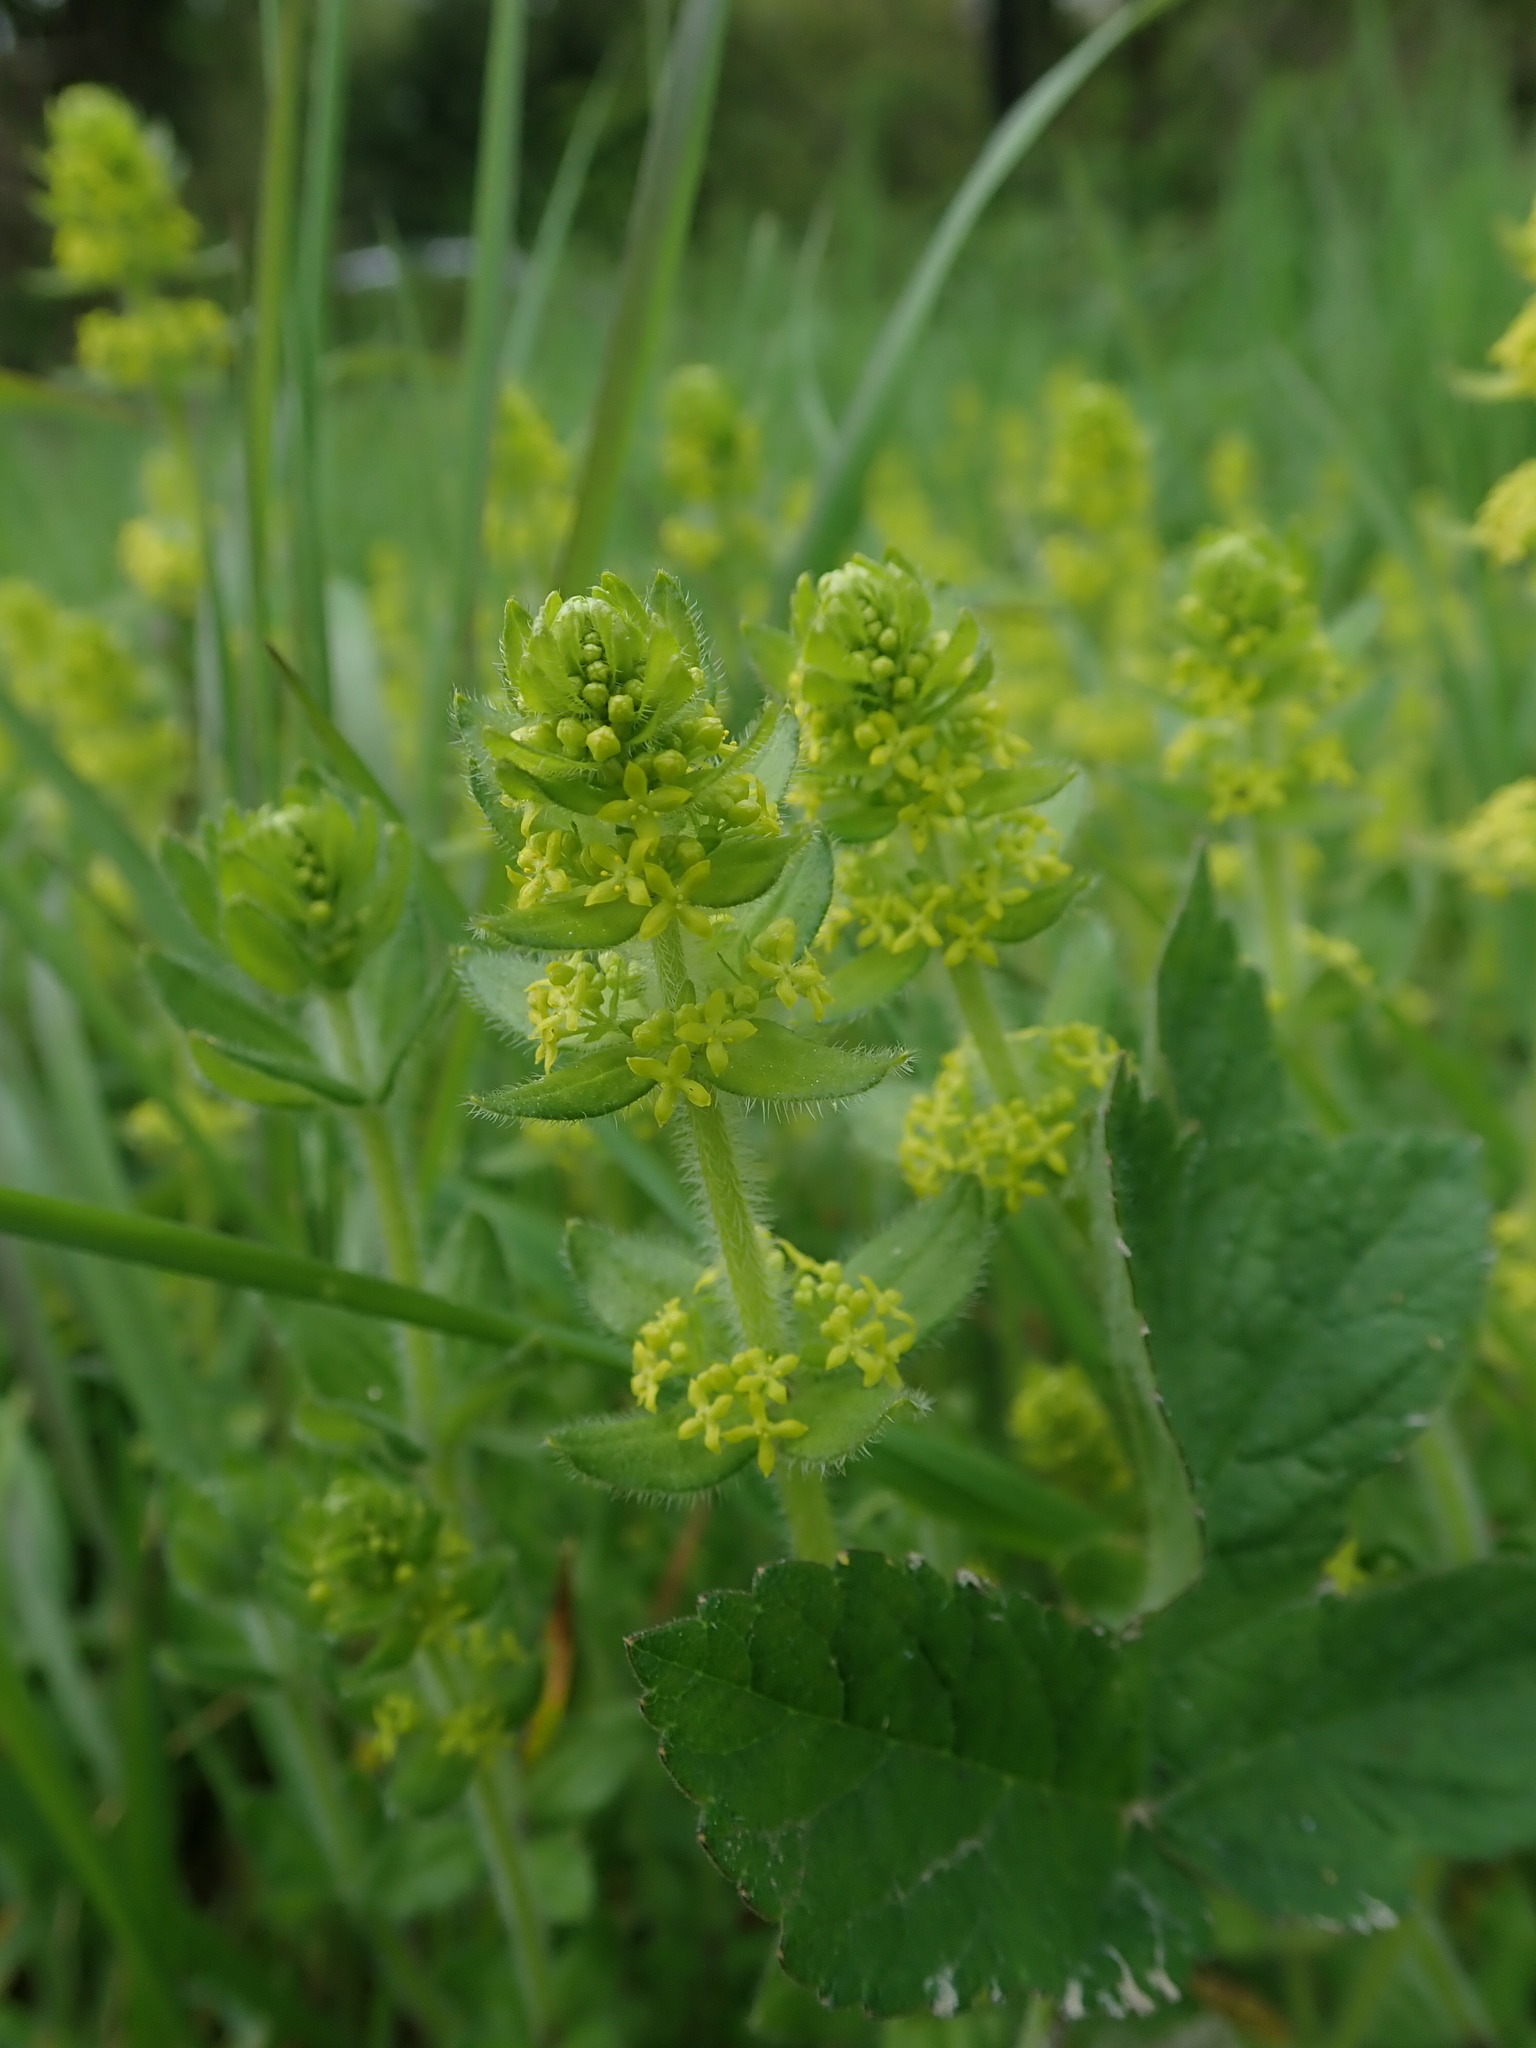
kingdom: Plantae
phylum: Tracheophyta
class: Magnoliopsida
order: Gentianales
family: Rubiaceae
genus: Cruciata
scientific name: Cruciata laevipes
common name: Crosswort
